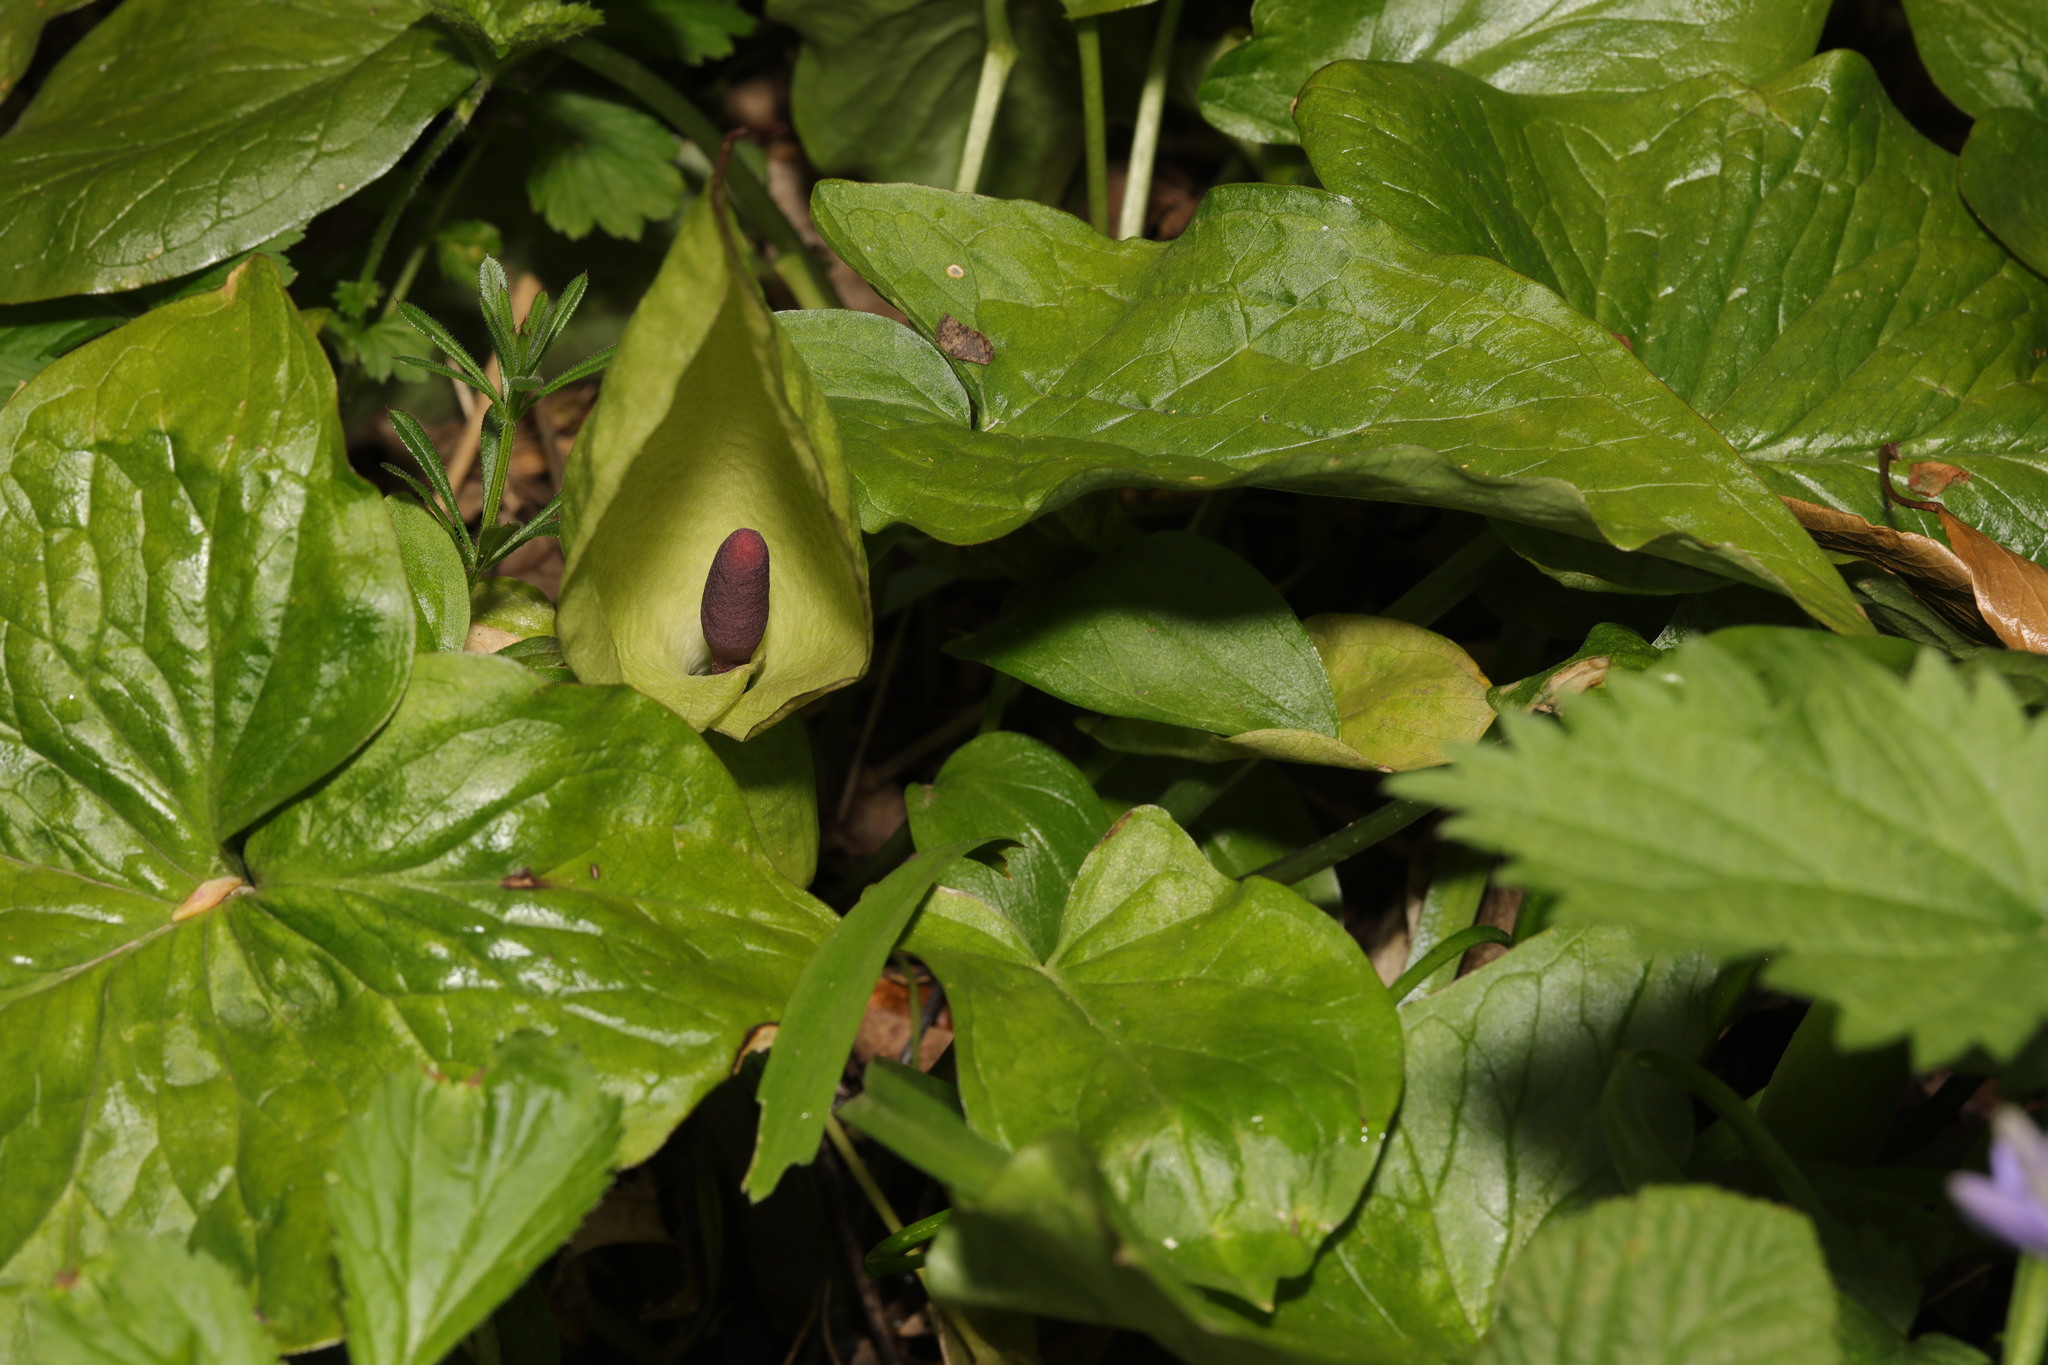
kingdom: Plantae
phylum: Tracheophyta
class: Liliopsida
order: Alismatales
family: Araceae
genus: Arum
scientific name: Arum maculatum
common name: Lords-and-ladies
